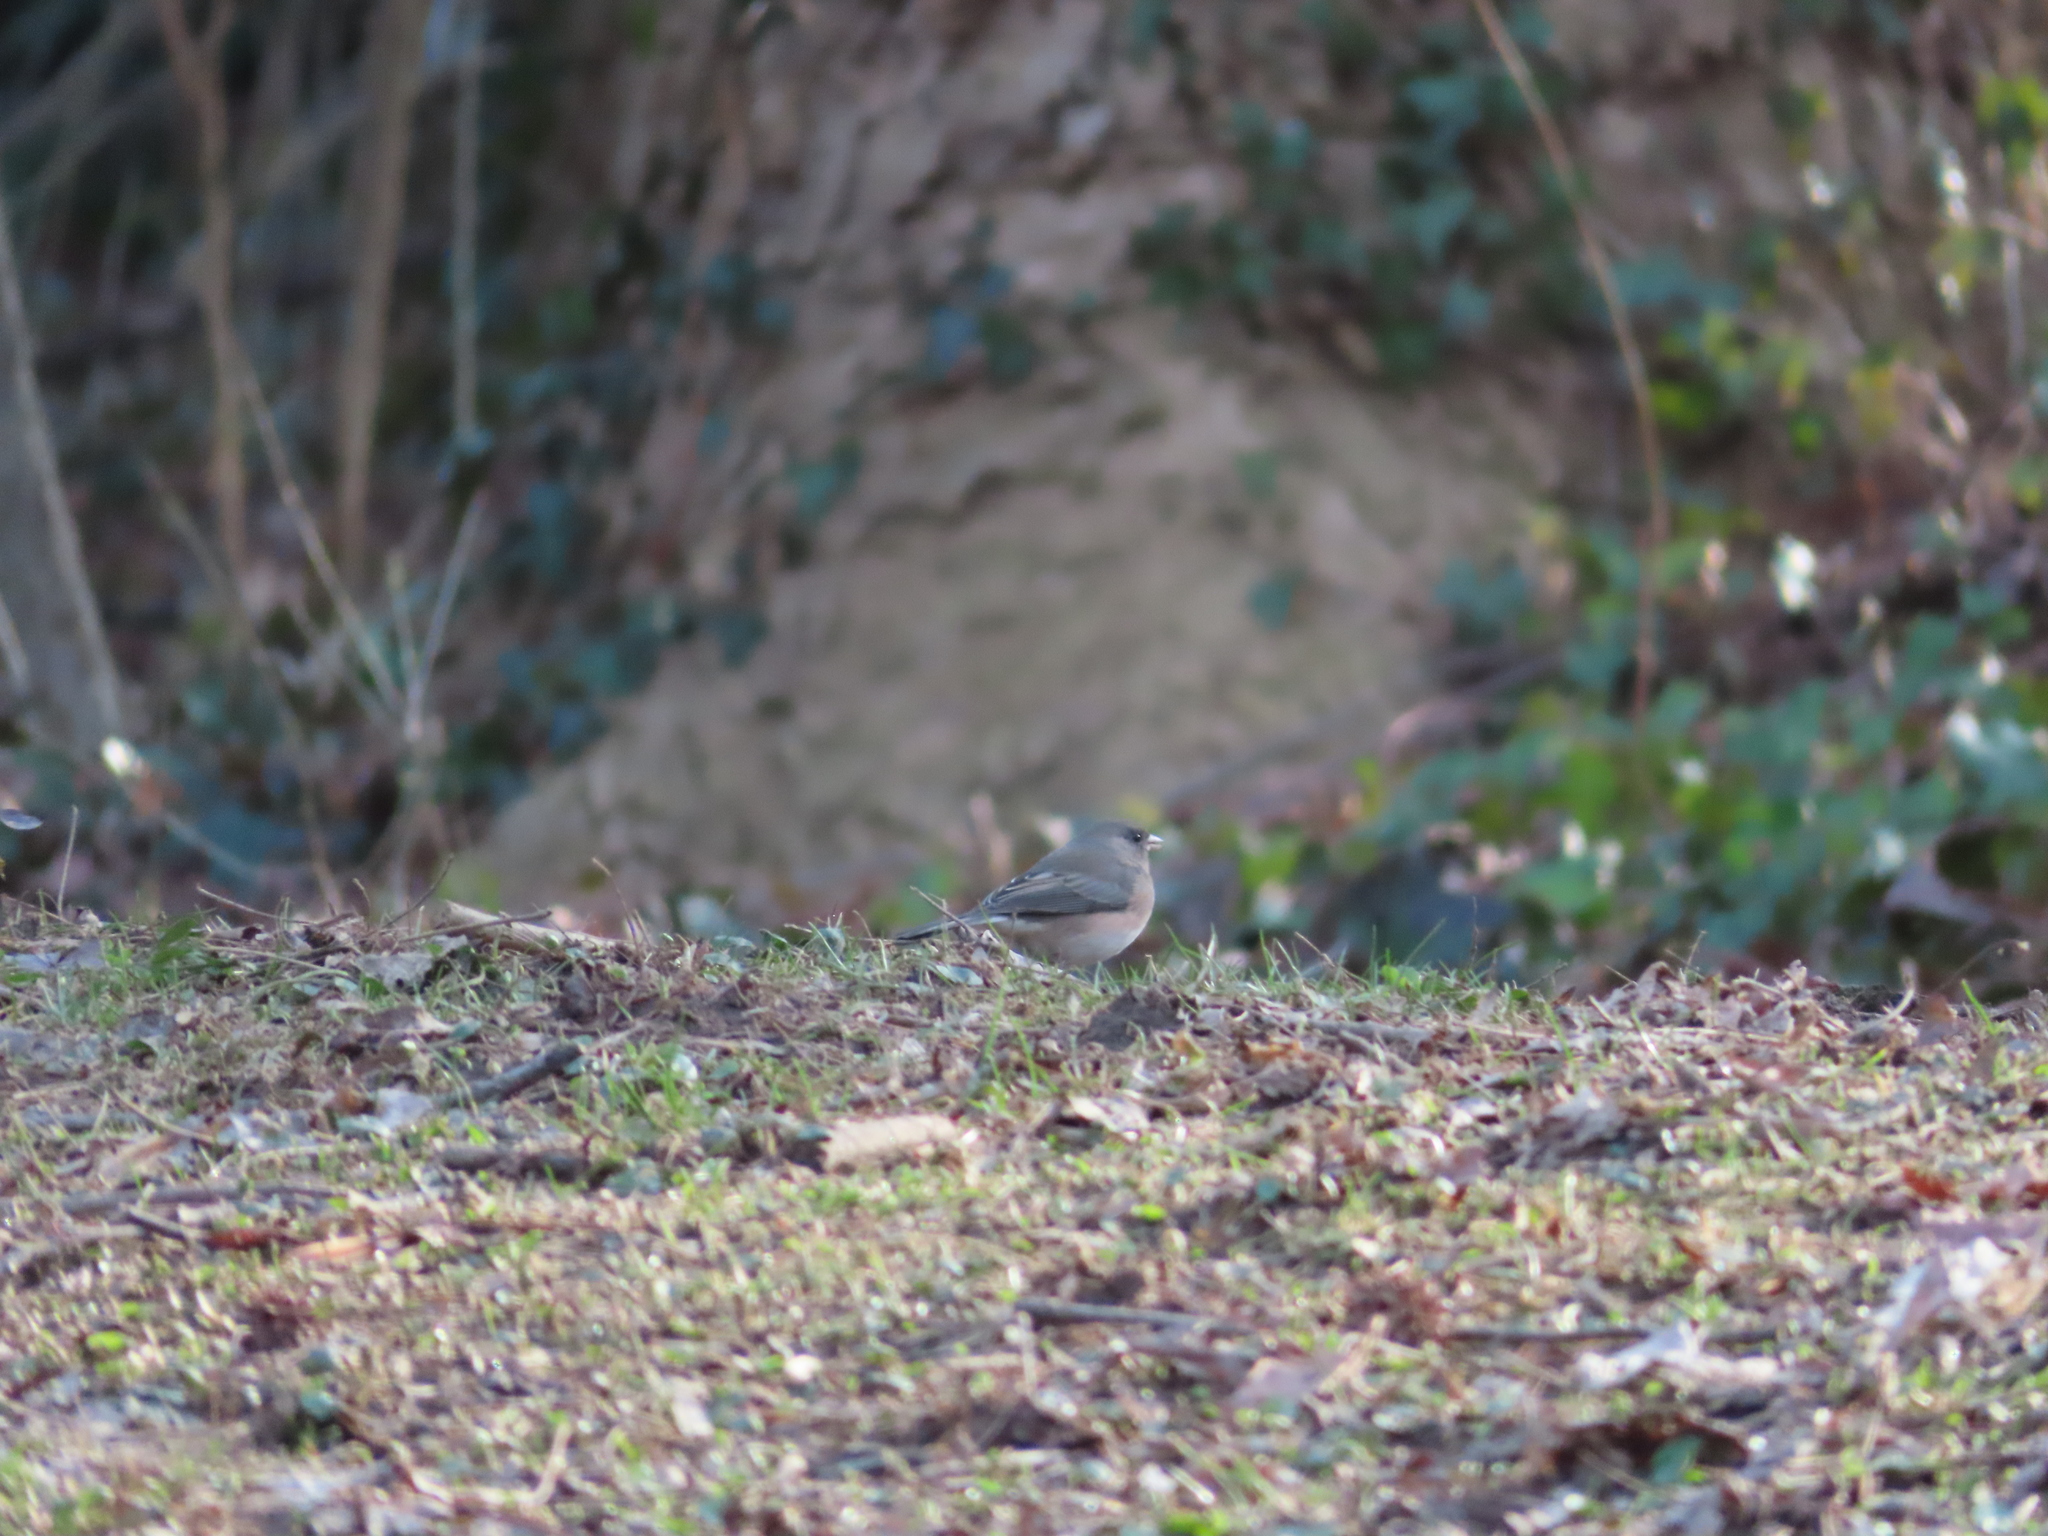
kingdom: Animalia
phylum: Chordata
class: Aves
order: Passeriformes
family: Passerellidae
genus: Junco
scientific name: Junco hyemalis
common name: Dark-eyed junco
